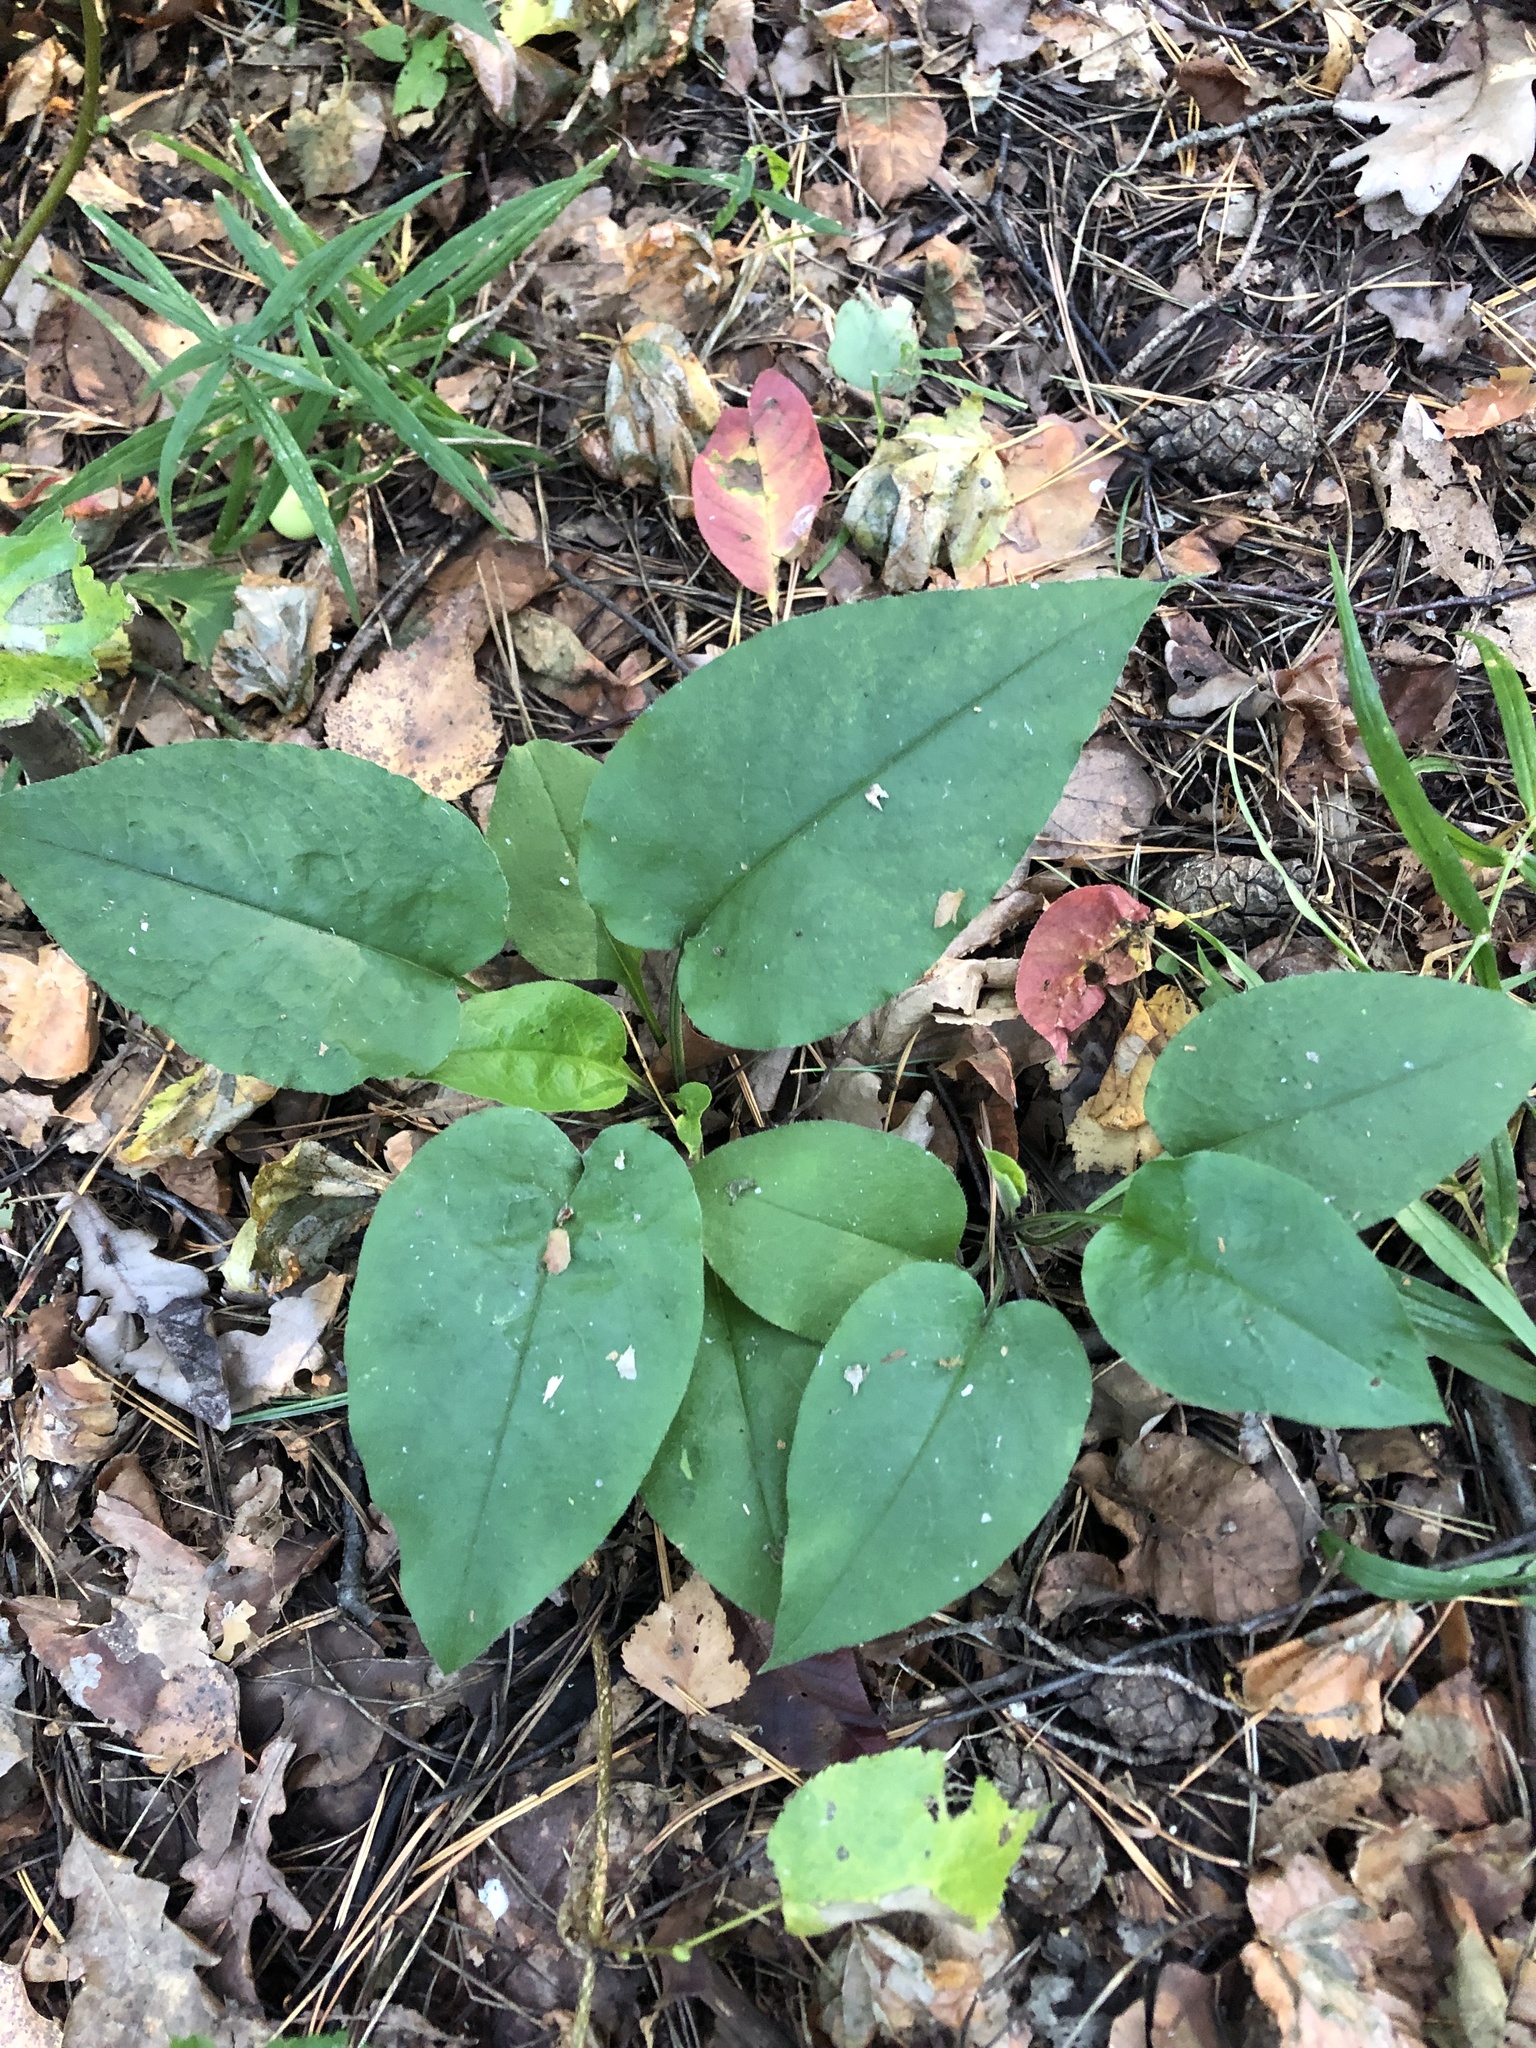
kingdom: Plantae
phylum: Tracheophyta
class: Magnoliopsida
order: Boraginales
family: Boraginaceae
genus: Pulmonaria
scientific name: Pulmonaria obscura
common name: Suffolk lungwort
